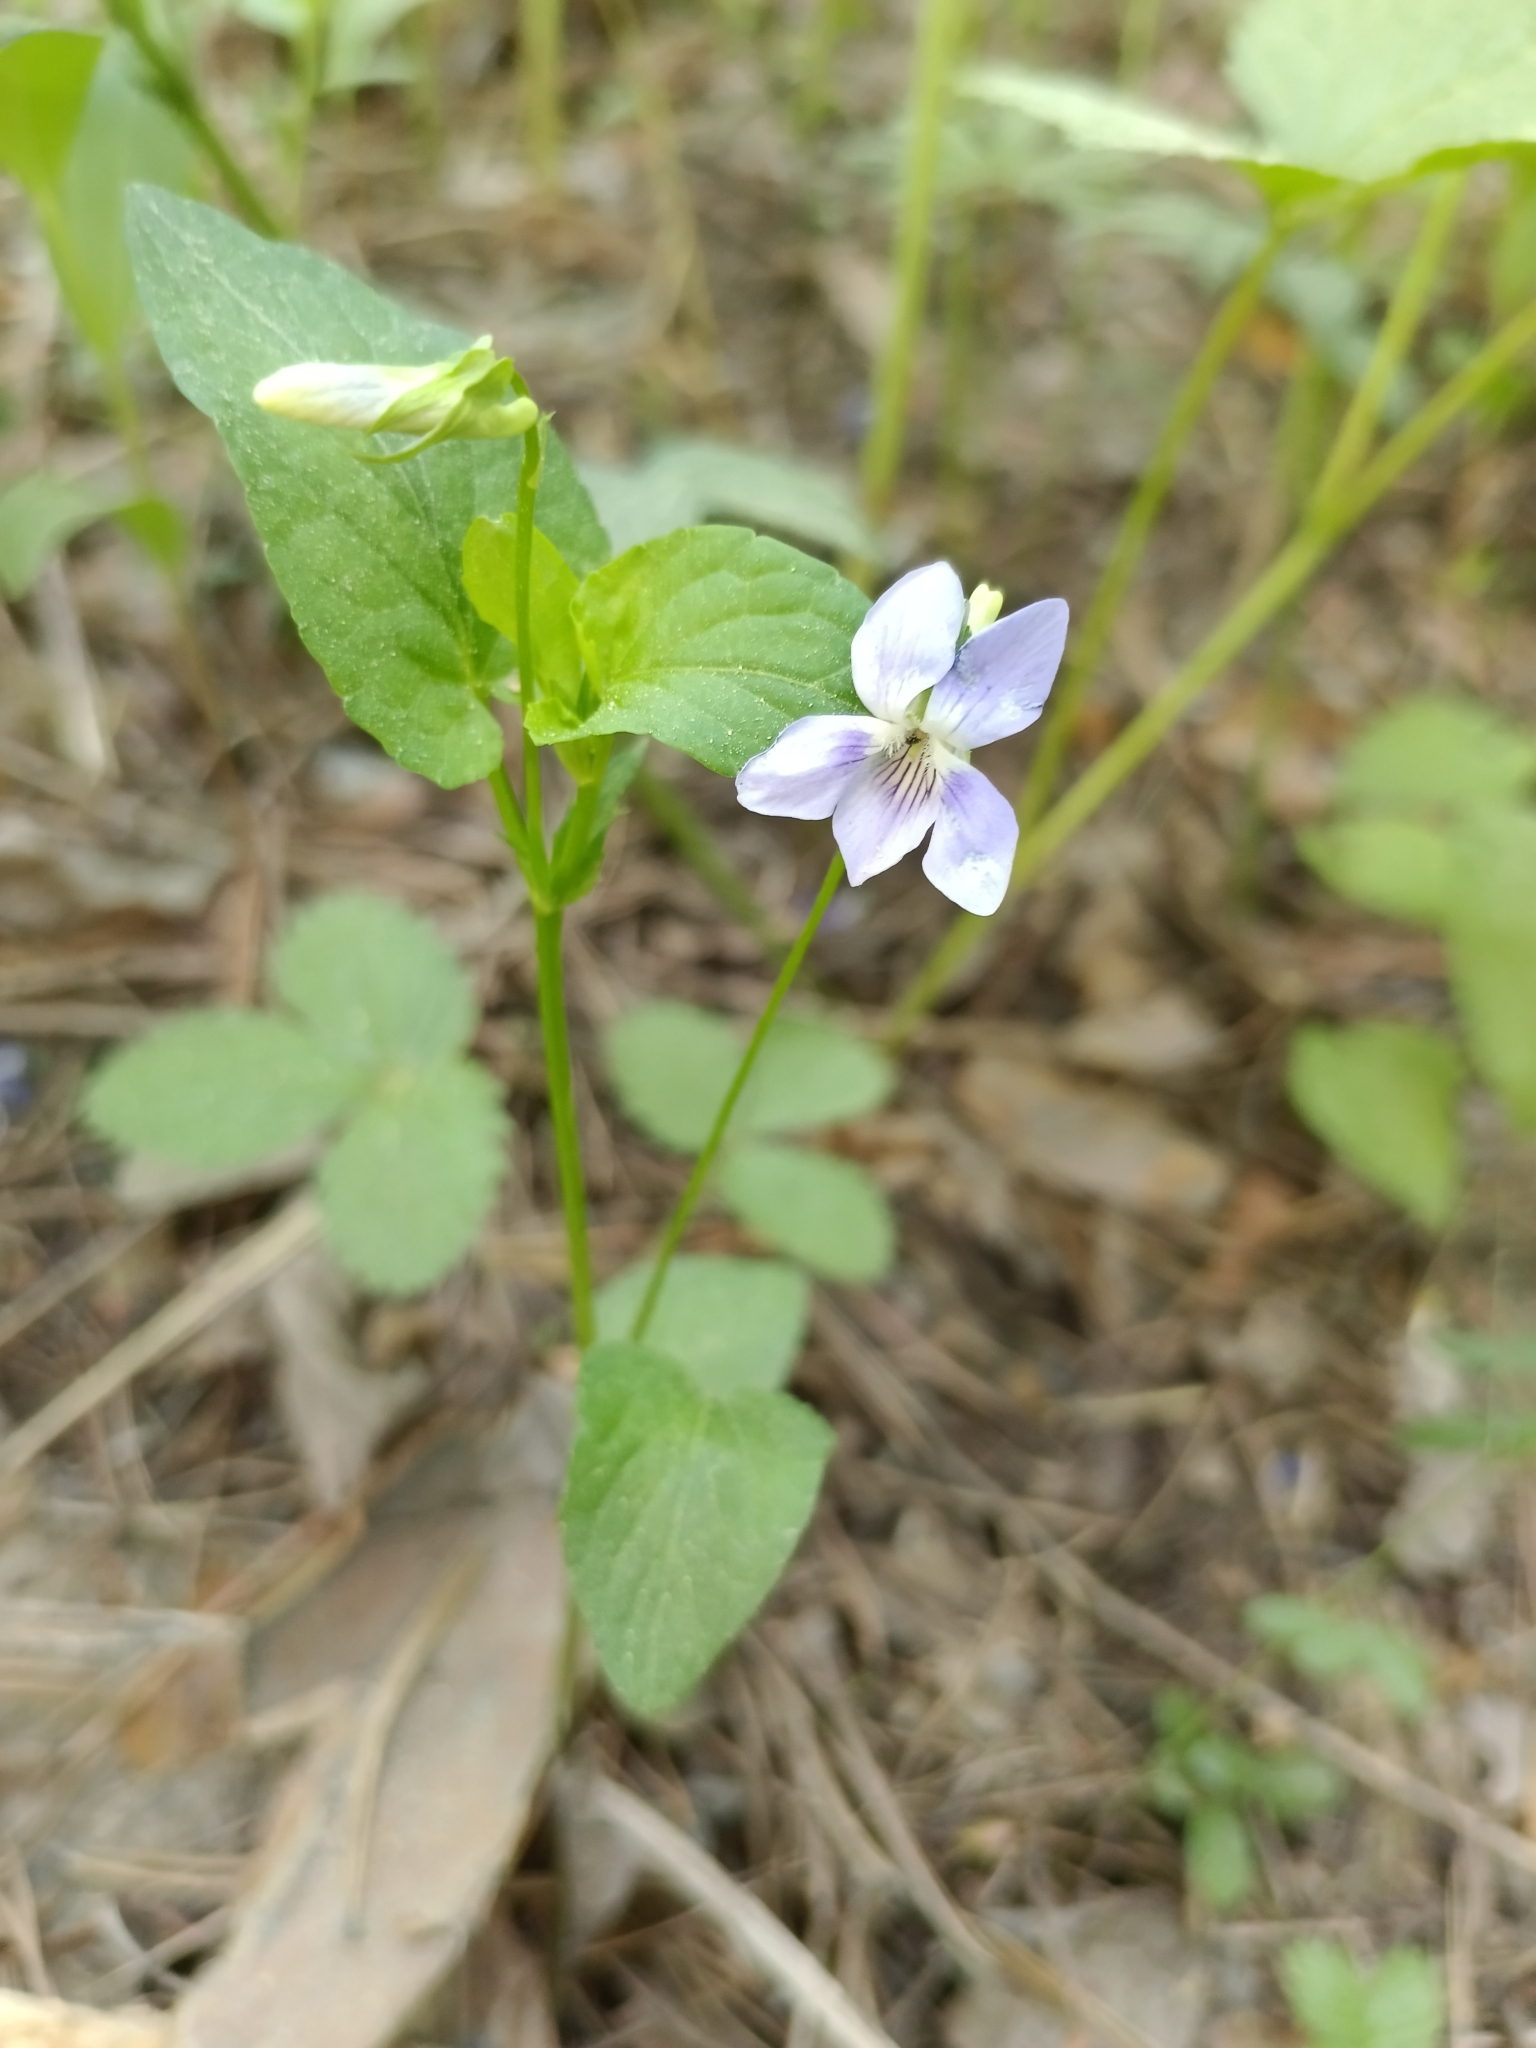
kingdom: Plantae
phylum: Tracheophyta
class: Magnoliopsida
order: Malpighiales
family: Violaceae
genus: Viola
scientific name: Viola
